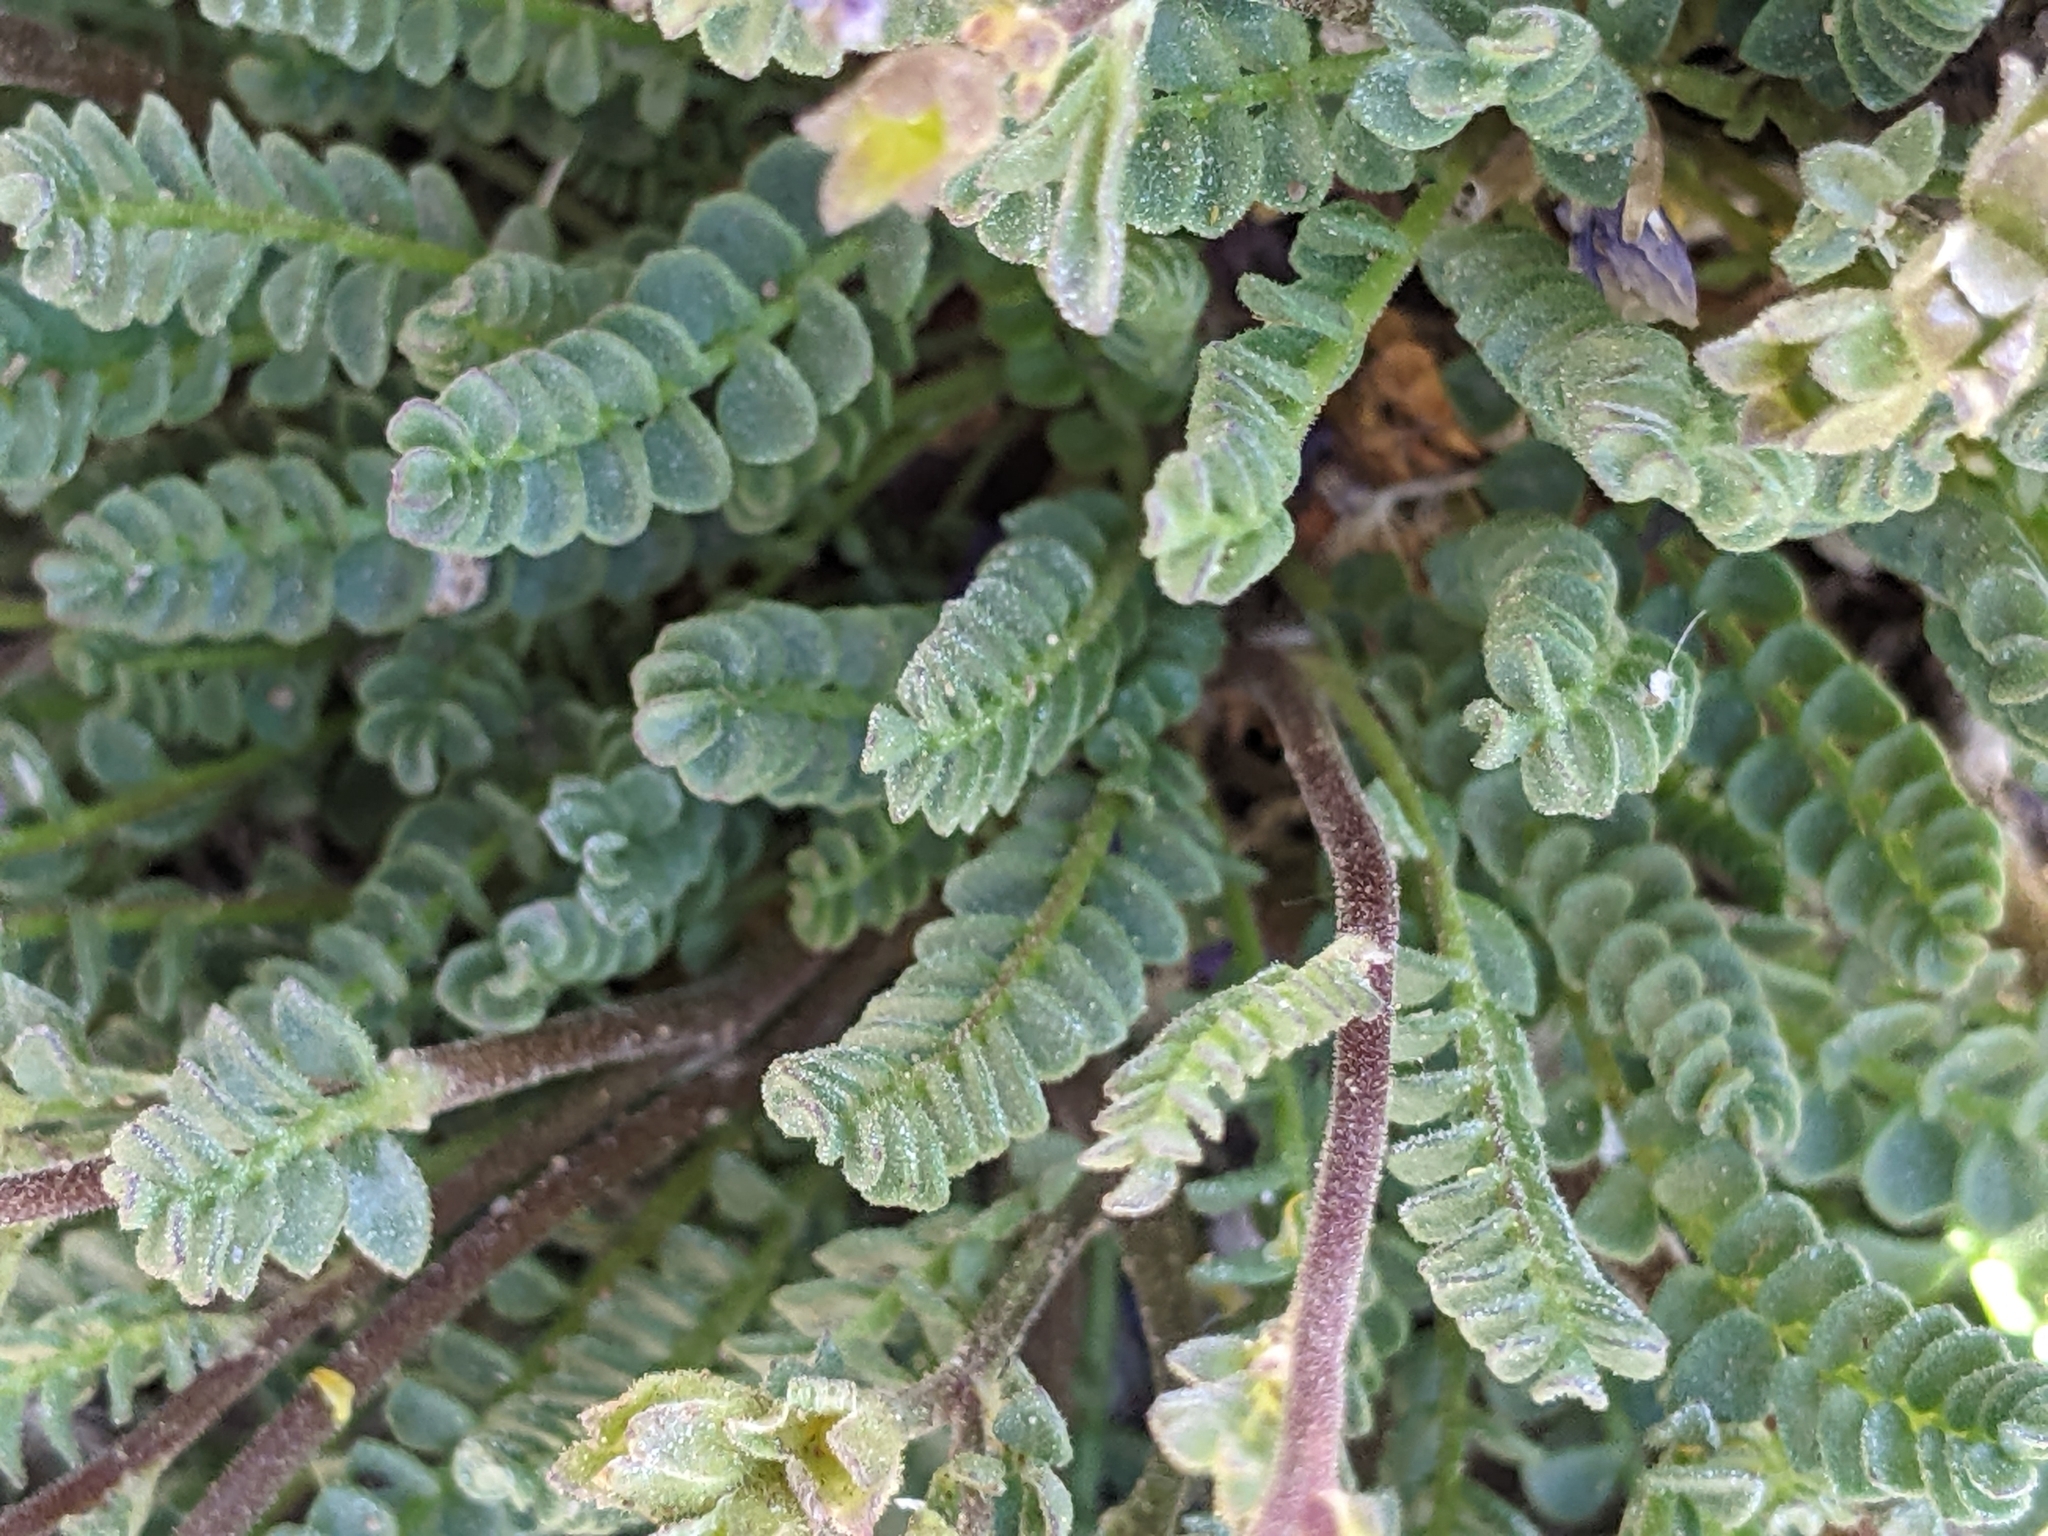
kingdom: Plantae
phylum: Tracheophyta
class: Magnoliopsida
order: Ericales
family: Polemoniaceae
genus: Polemonium
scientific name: Polemonium pulcherrimum
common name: Short jacob's-ladder
